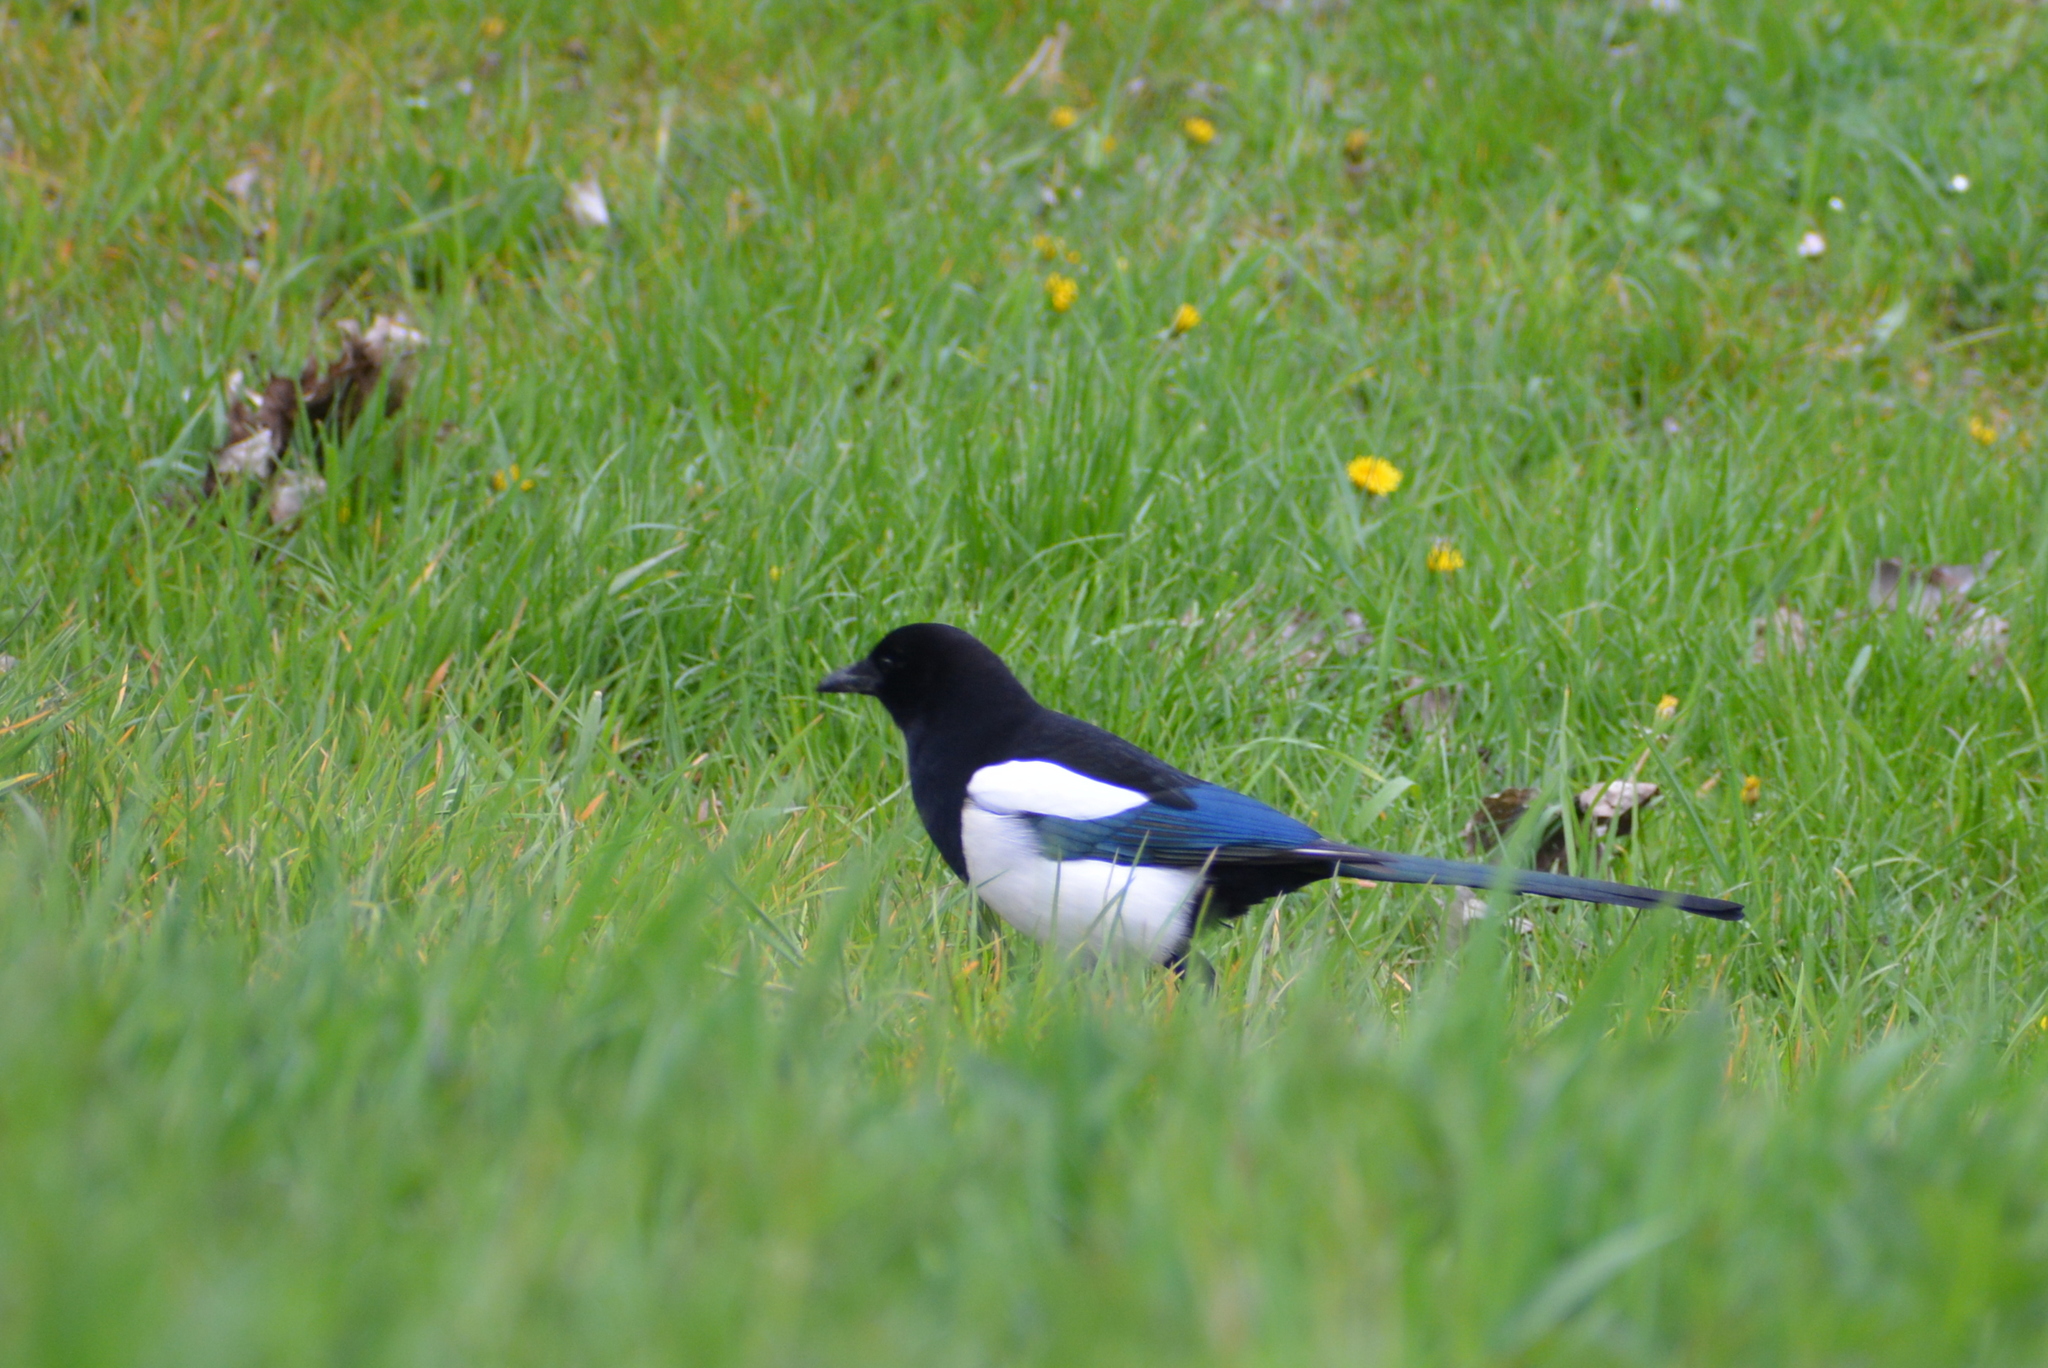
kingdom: Animalia
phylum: Chordata
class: Aves
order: Passeriformes
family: Corvidae
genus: Pica
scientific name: Pica pica
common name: Eurasian magpie
